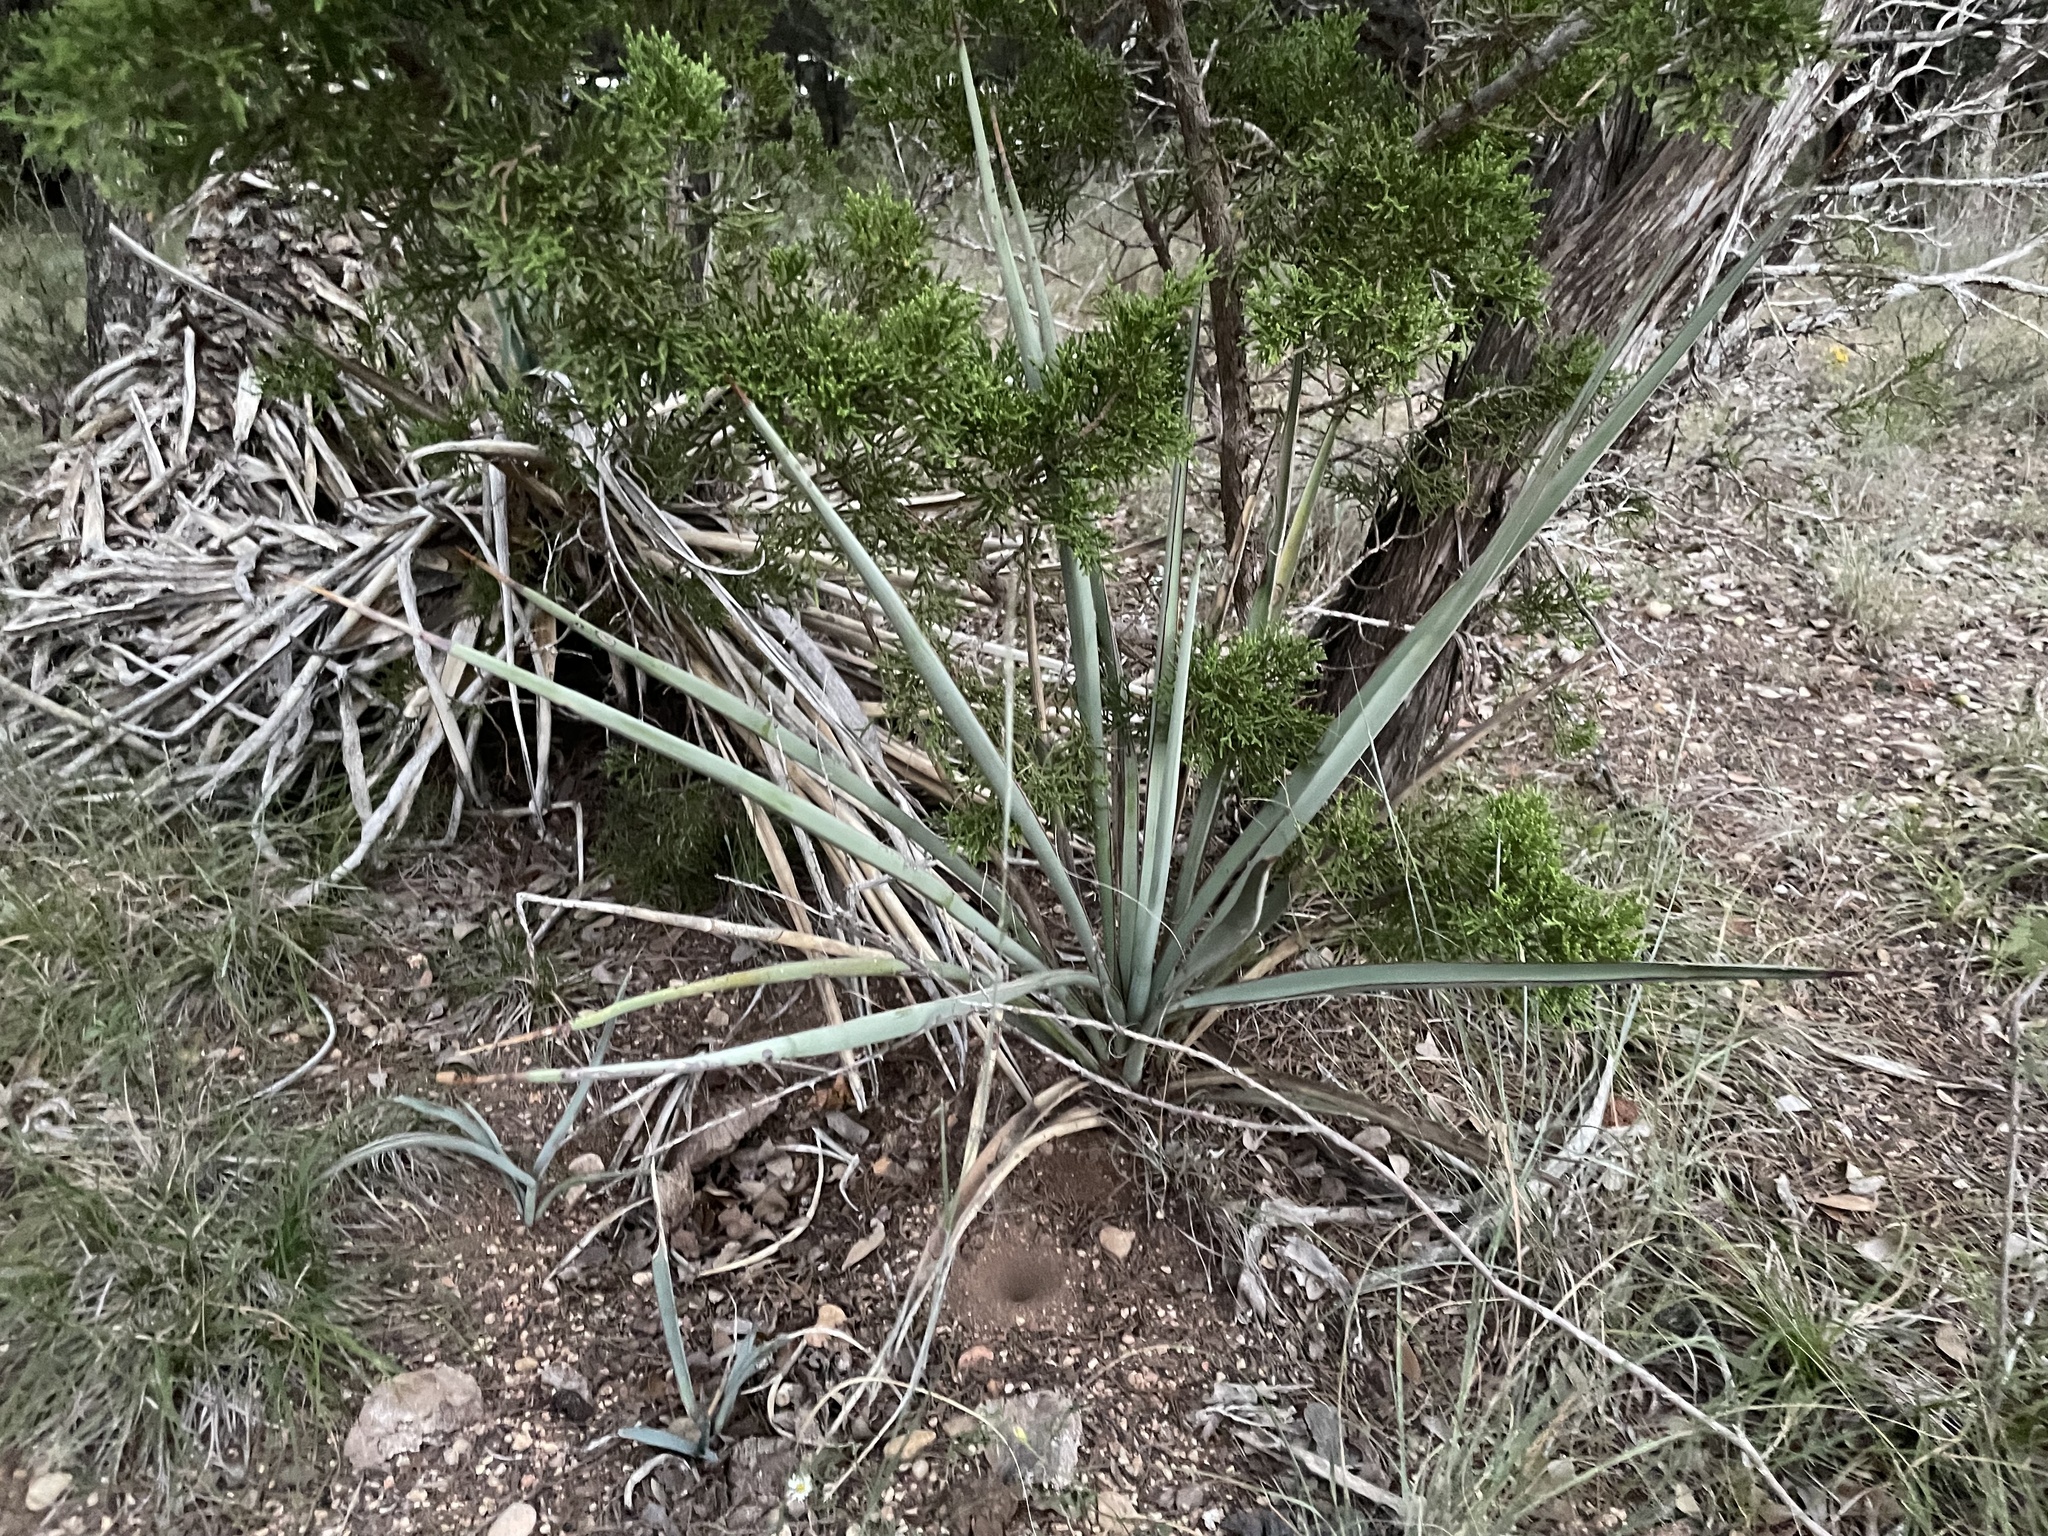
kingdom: Plantae
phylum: Tracheophyta
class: Liliopsida
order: Asparagales
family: Asparagaceae
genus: Yucca
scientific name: Yucca treculiana
